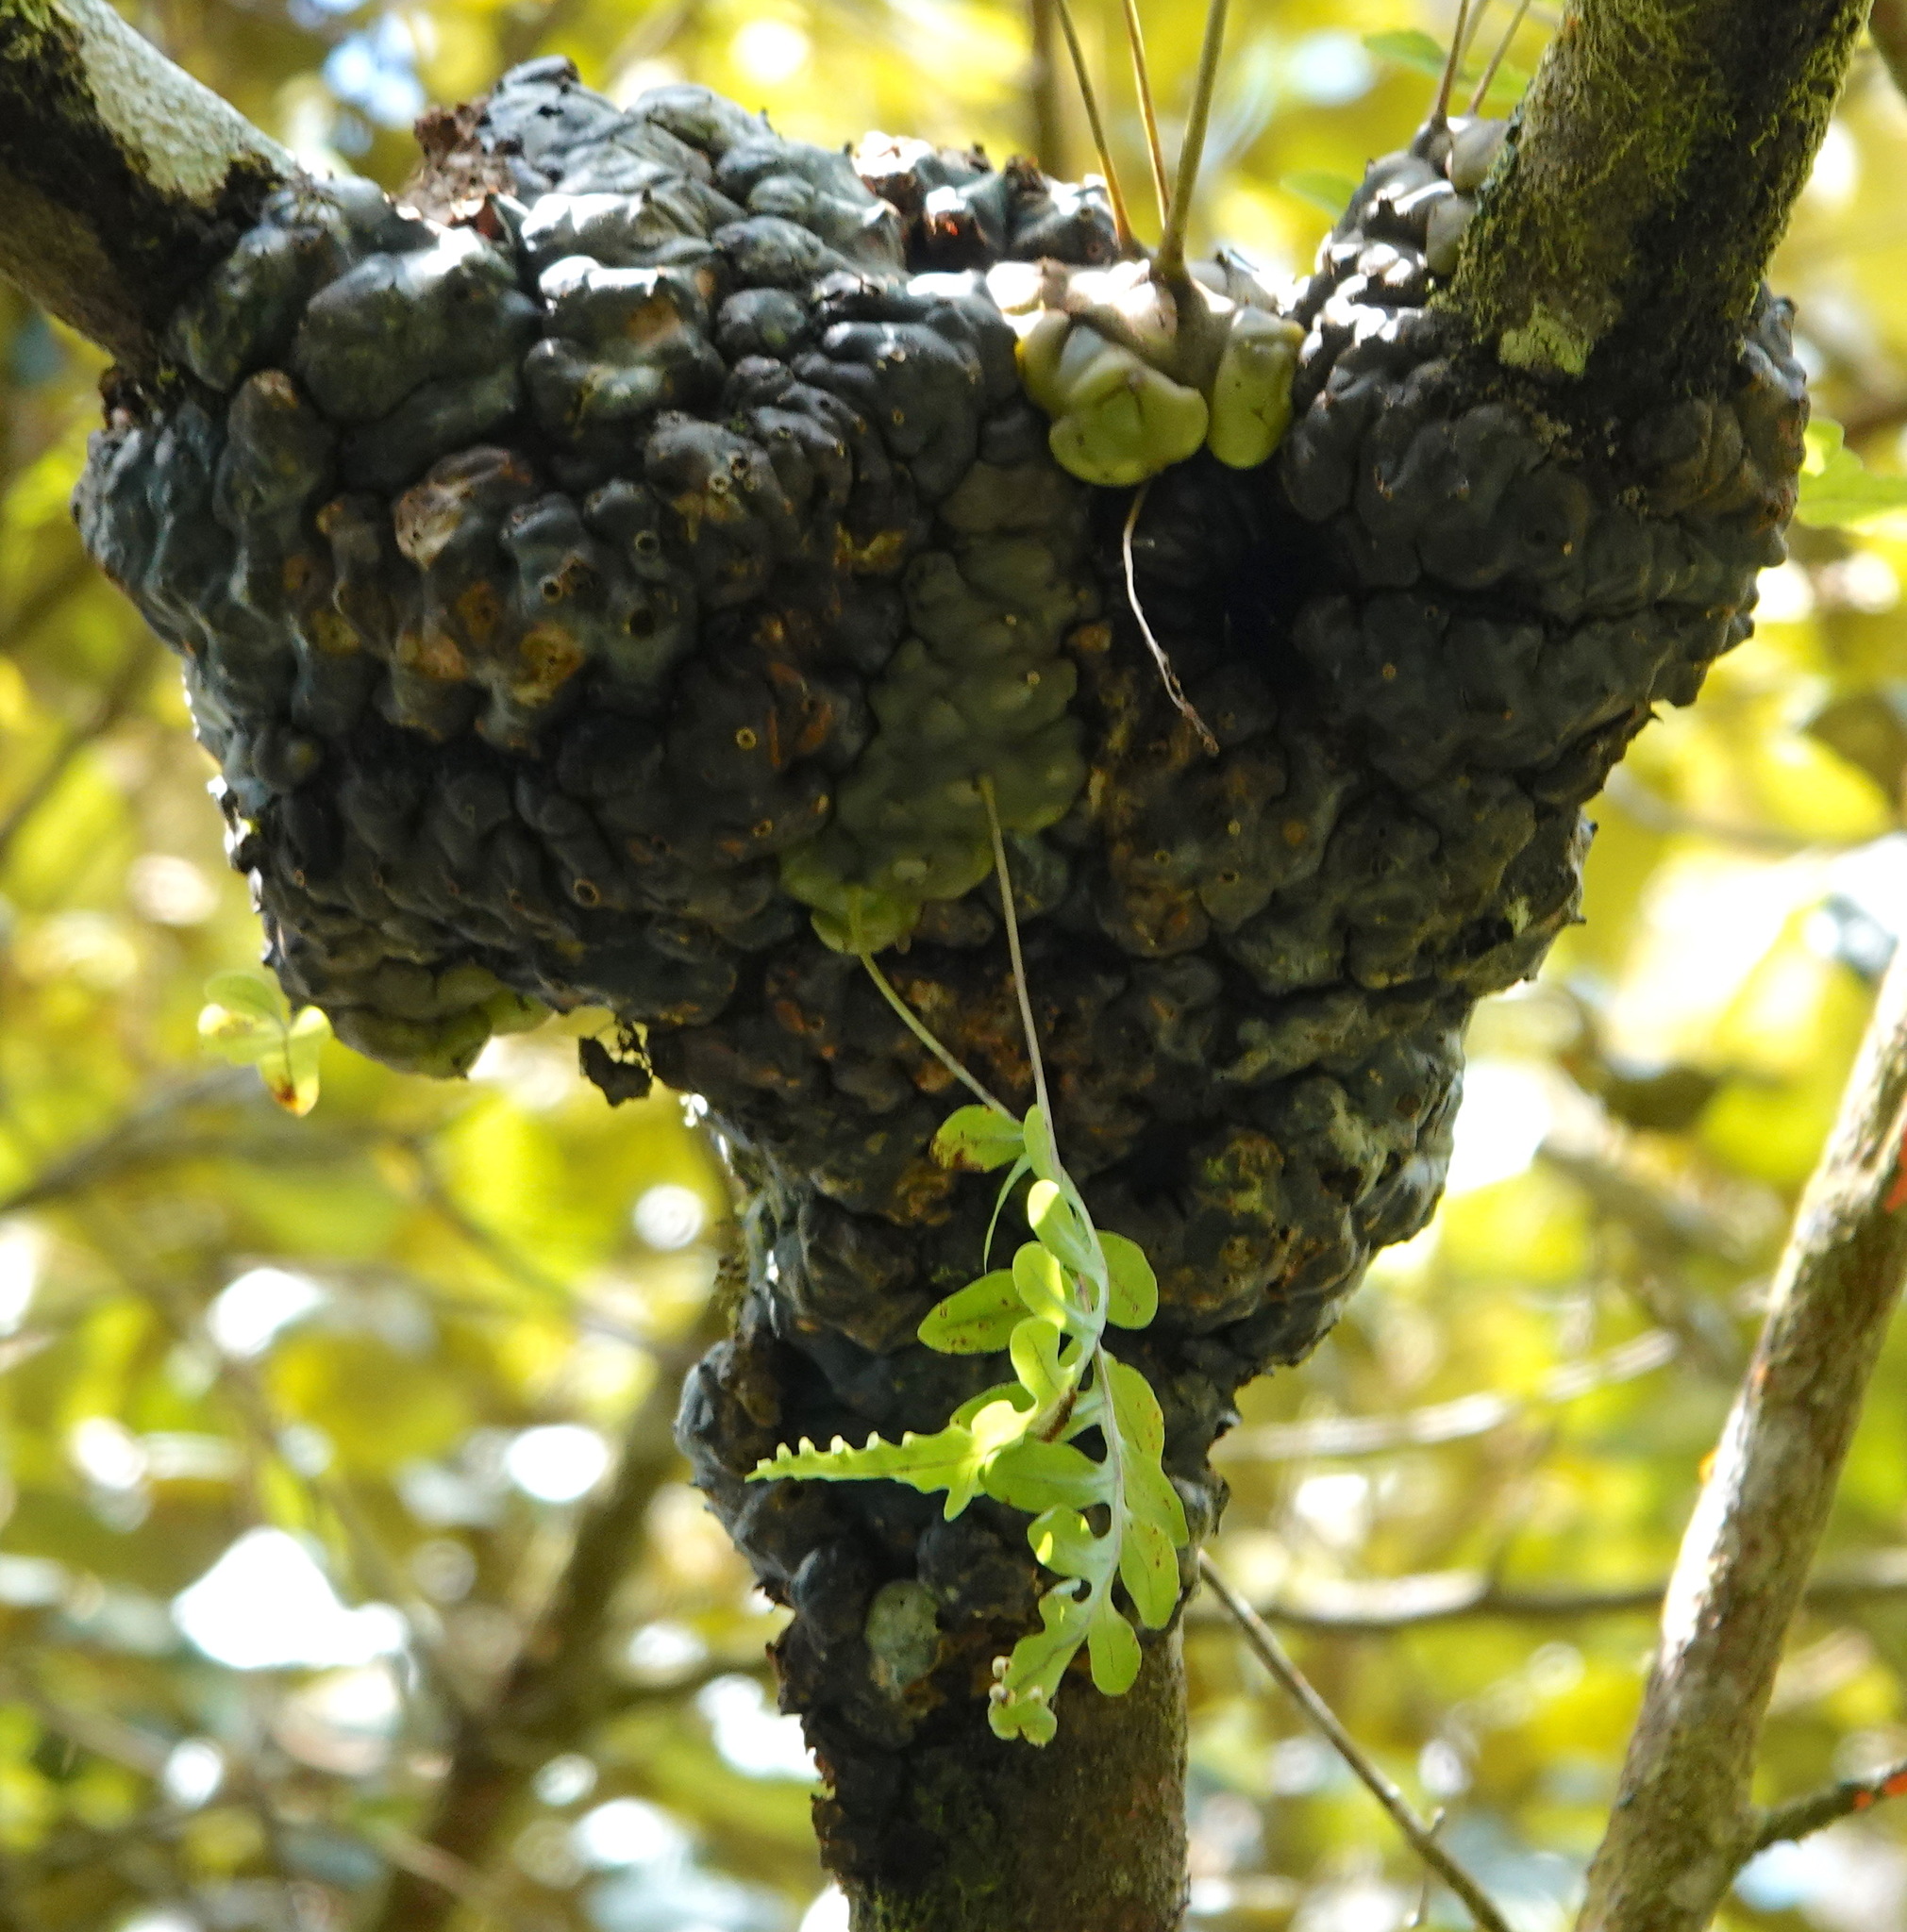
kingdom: Plantae
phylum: Tracheophyta
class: Polypodiopsida
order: Polypodiales
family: Polypodiaceae
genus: Lecanopteris
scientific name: Lecanopteris deparioides
